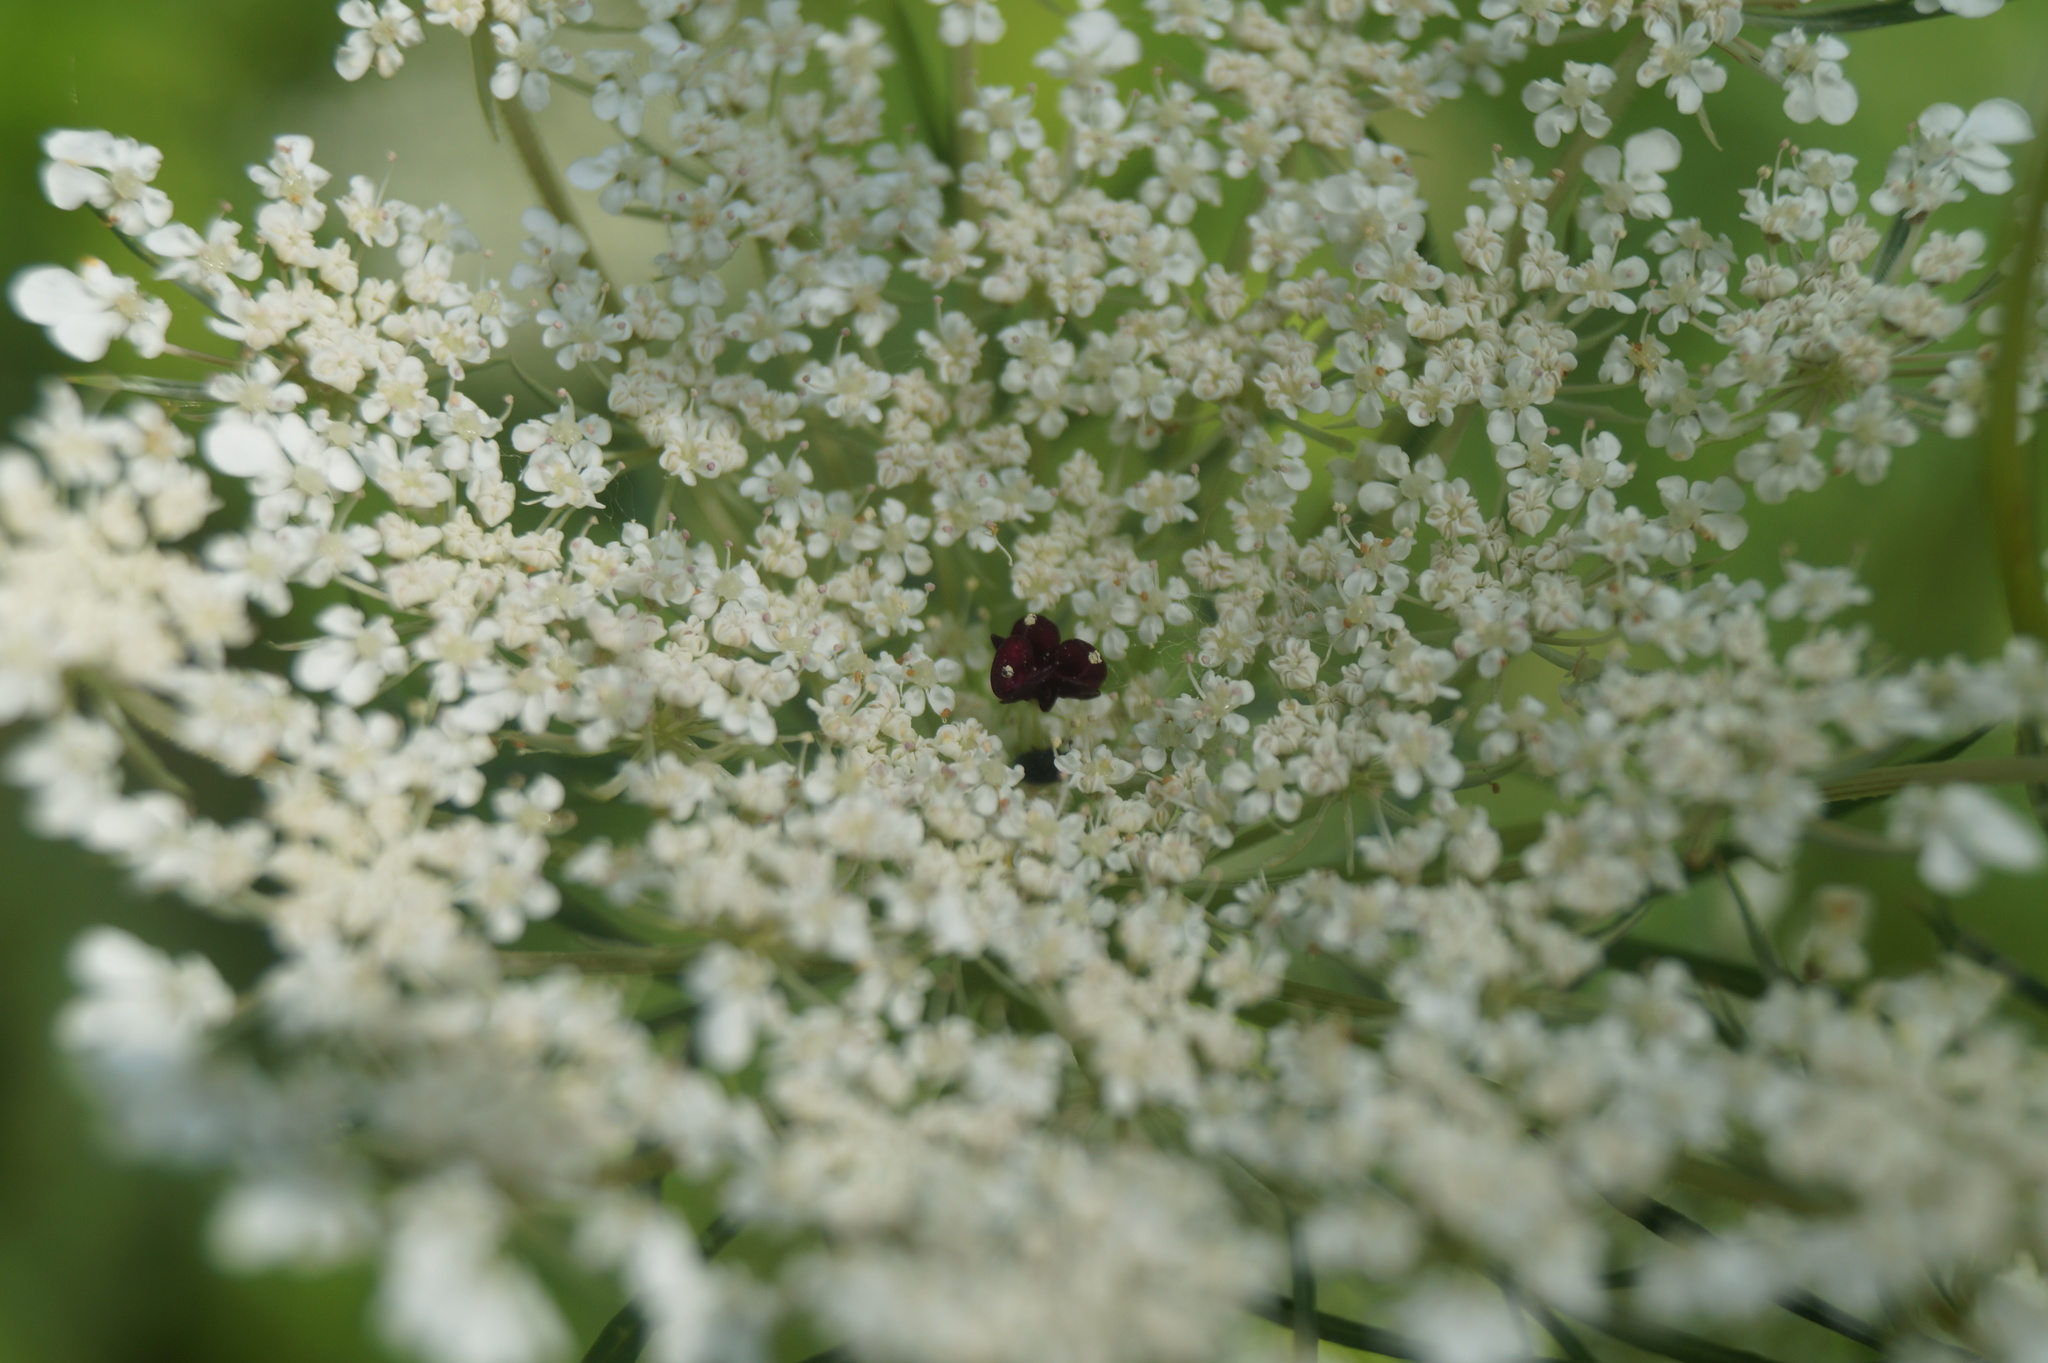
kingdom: Plantae
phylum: Tracheophyta
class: Magnoliopsida
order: Apiales
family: Apiaceae
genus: Daucus
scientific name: Daucus carota
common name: Wild carrot
